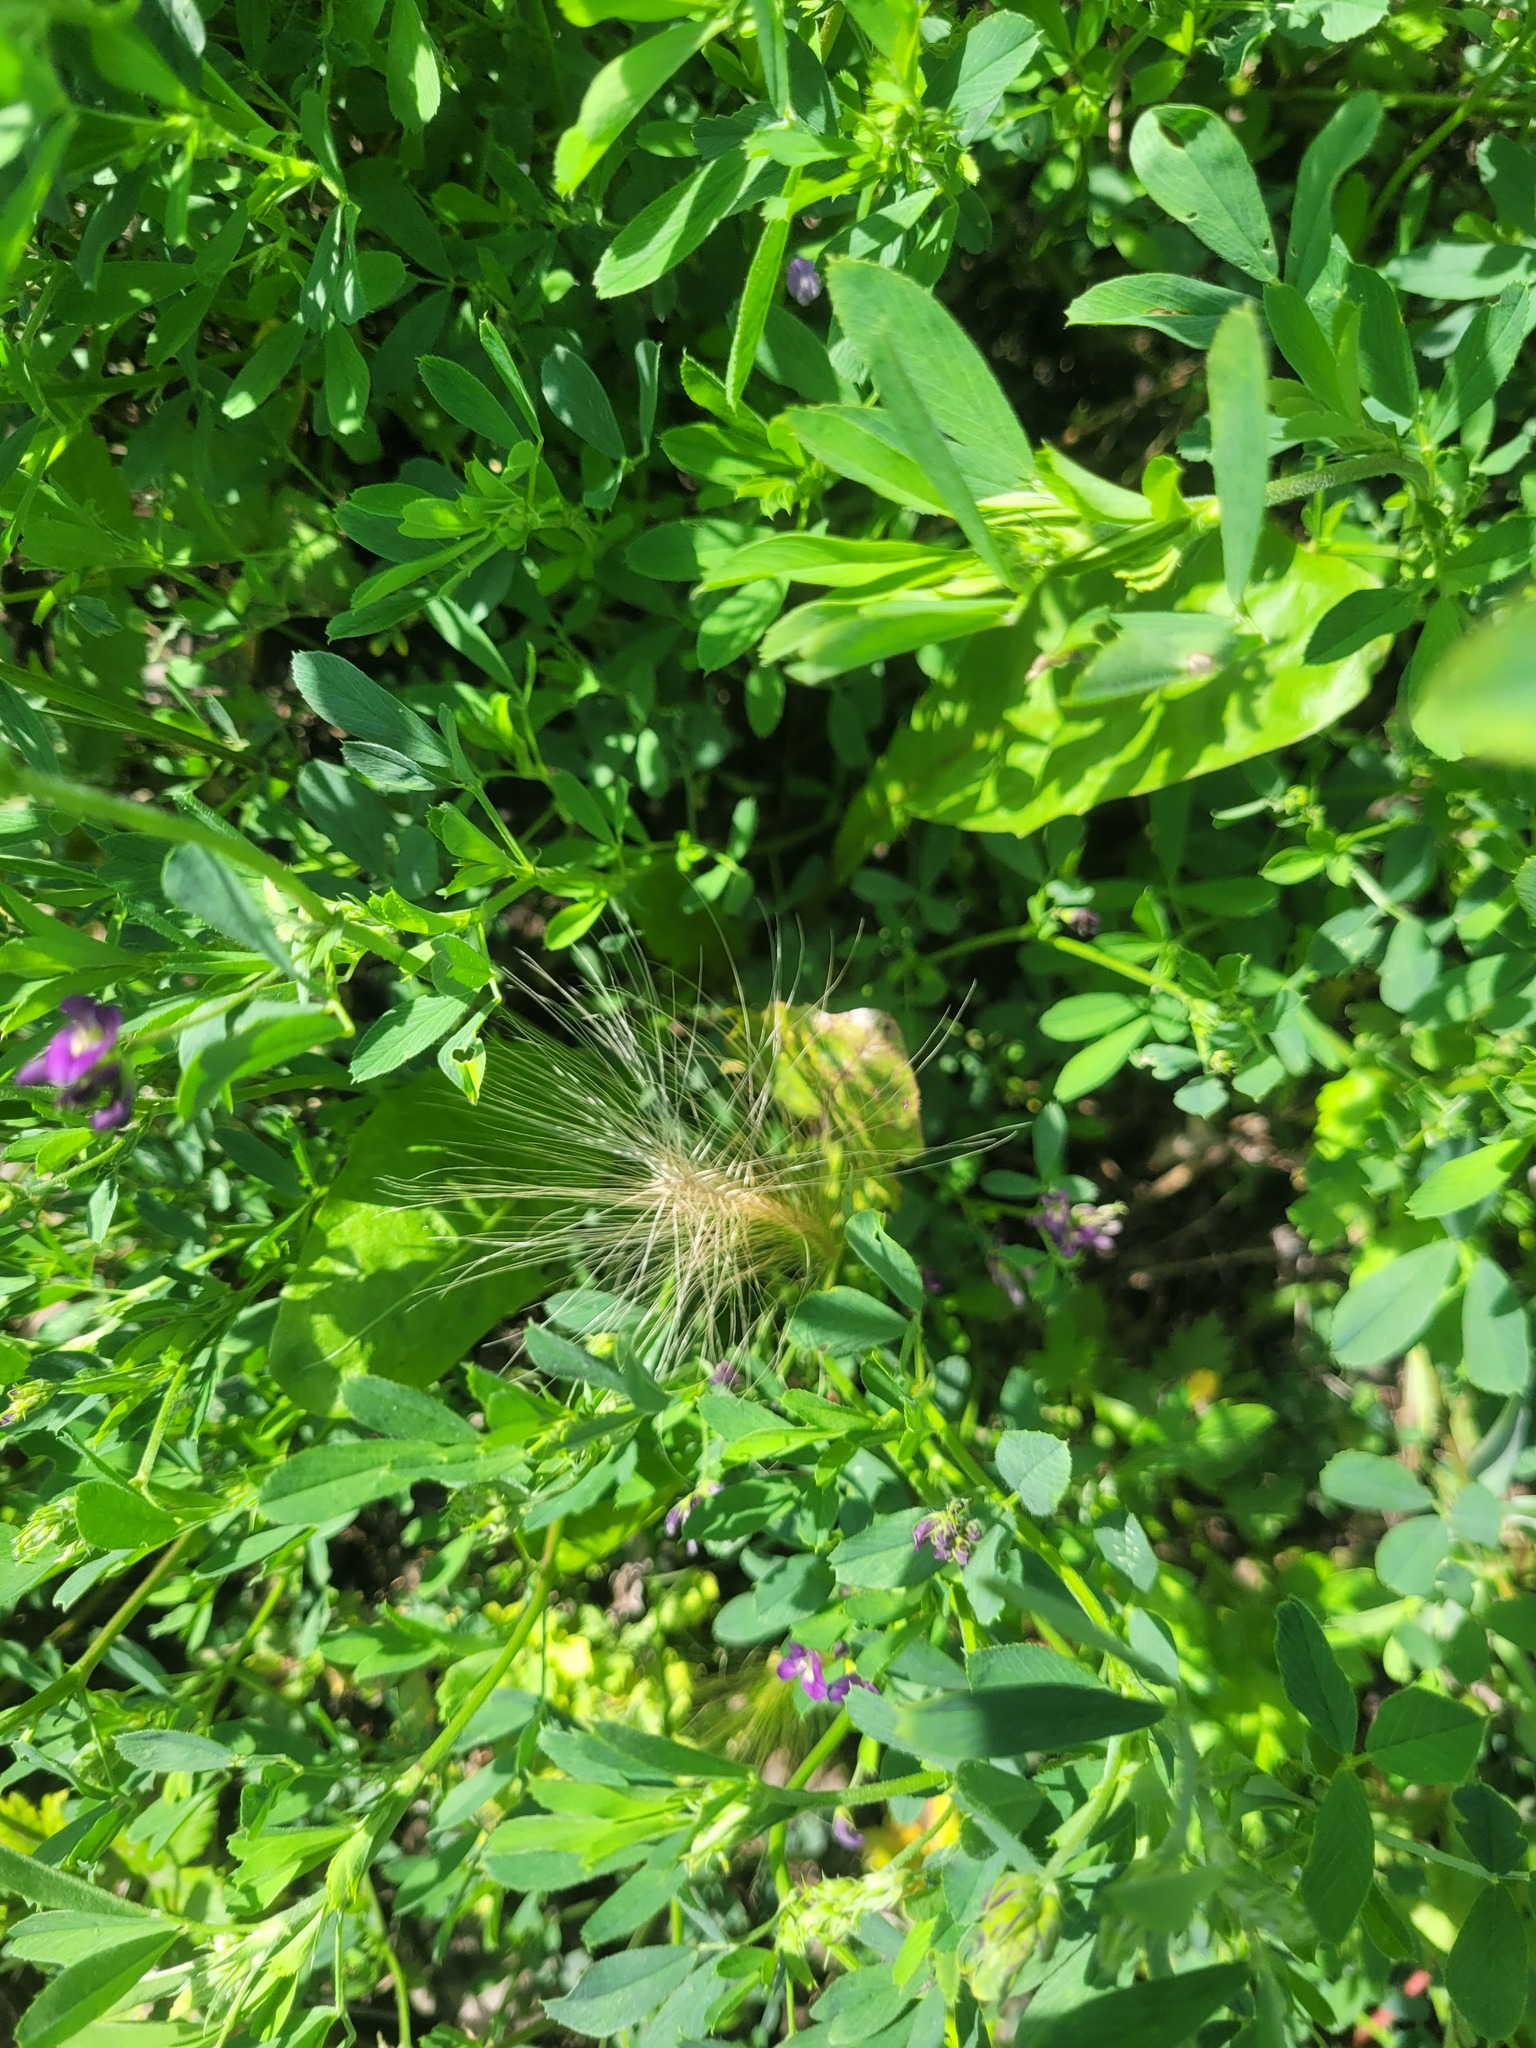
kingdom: Plantae
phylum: Tracheophyta
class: Liliopsida
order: Poales
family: Poaceae
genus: Hordeum
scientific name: Hordeum jubatum
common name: Foxtail barley
